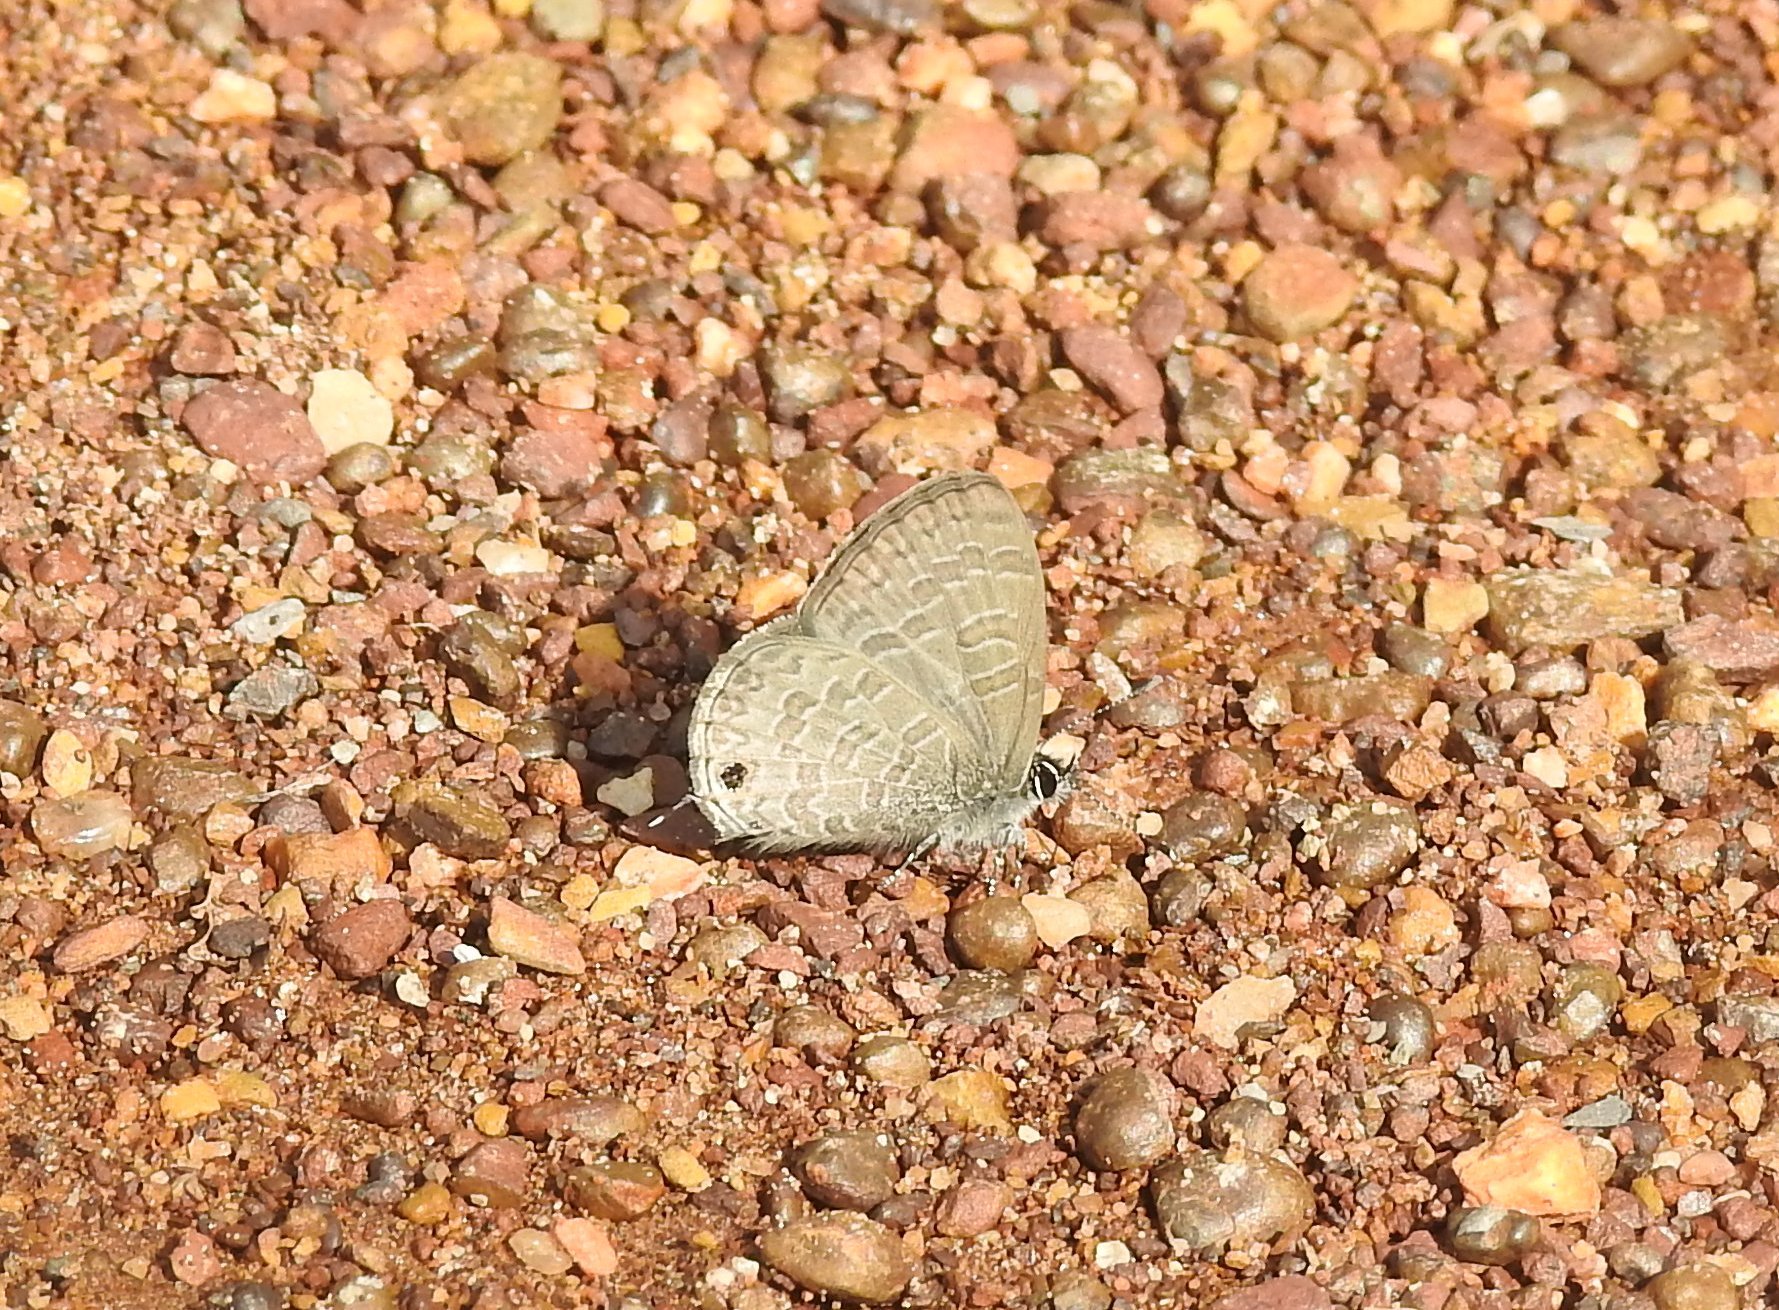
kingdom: Animalia
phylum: Arthropoda
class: Insecta
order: Lepidoptera
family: Lycaenidae
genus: Prosotas
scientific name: Prosotas nora
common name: Common line blue
